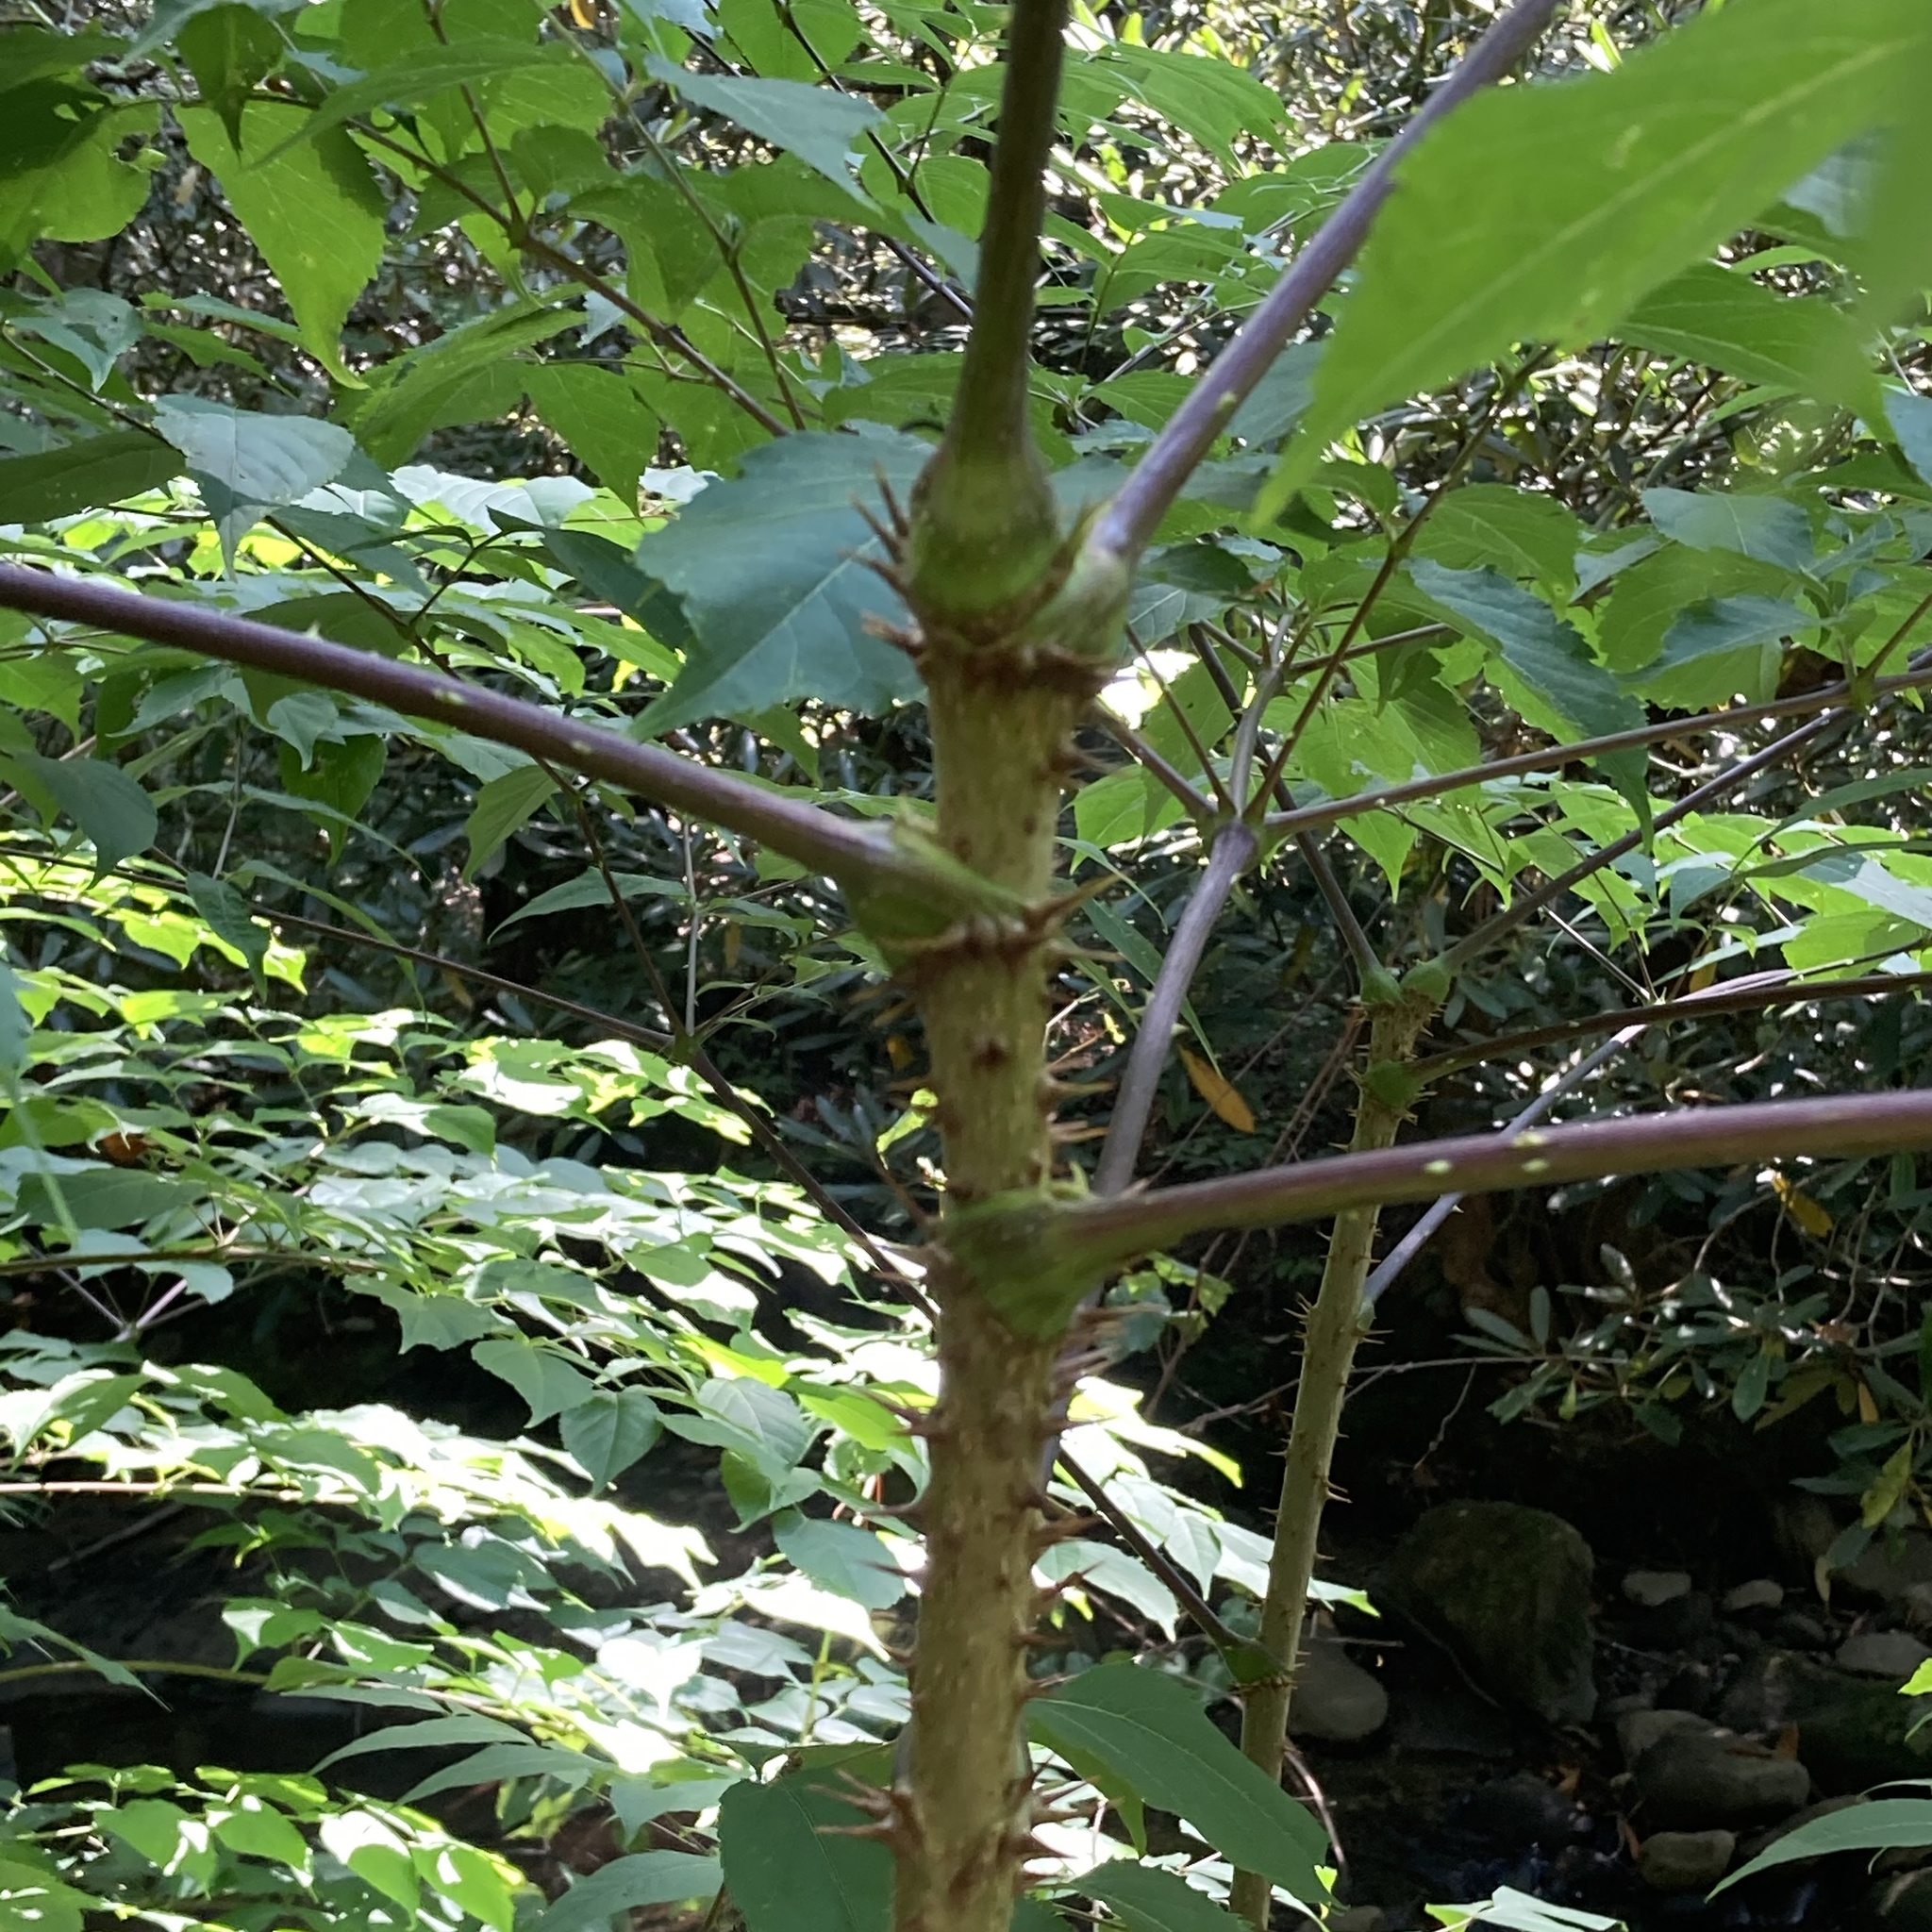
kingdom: Plantae
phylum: Tracheophyta
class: Magnoliopsida
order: Apiales
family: Araliaceae
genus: Aralia
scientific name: Aralia spinosa
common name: Hercules'-club
